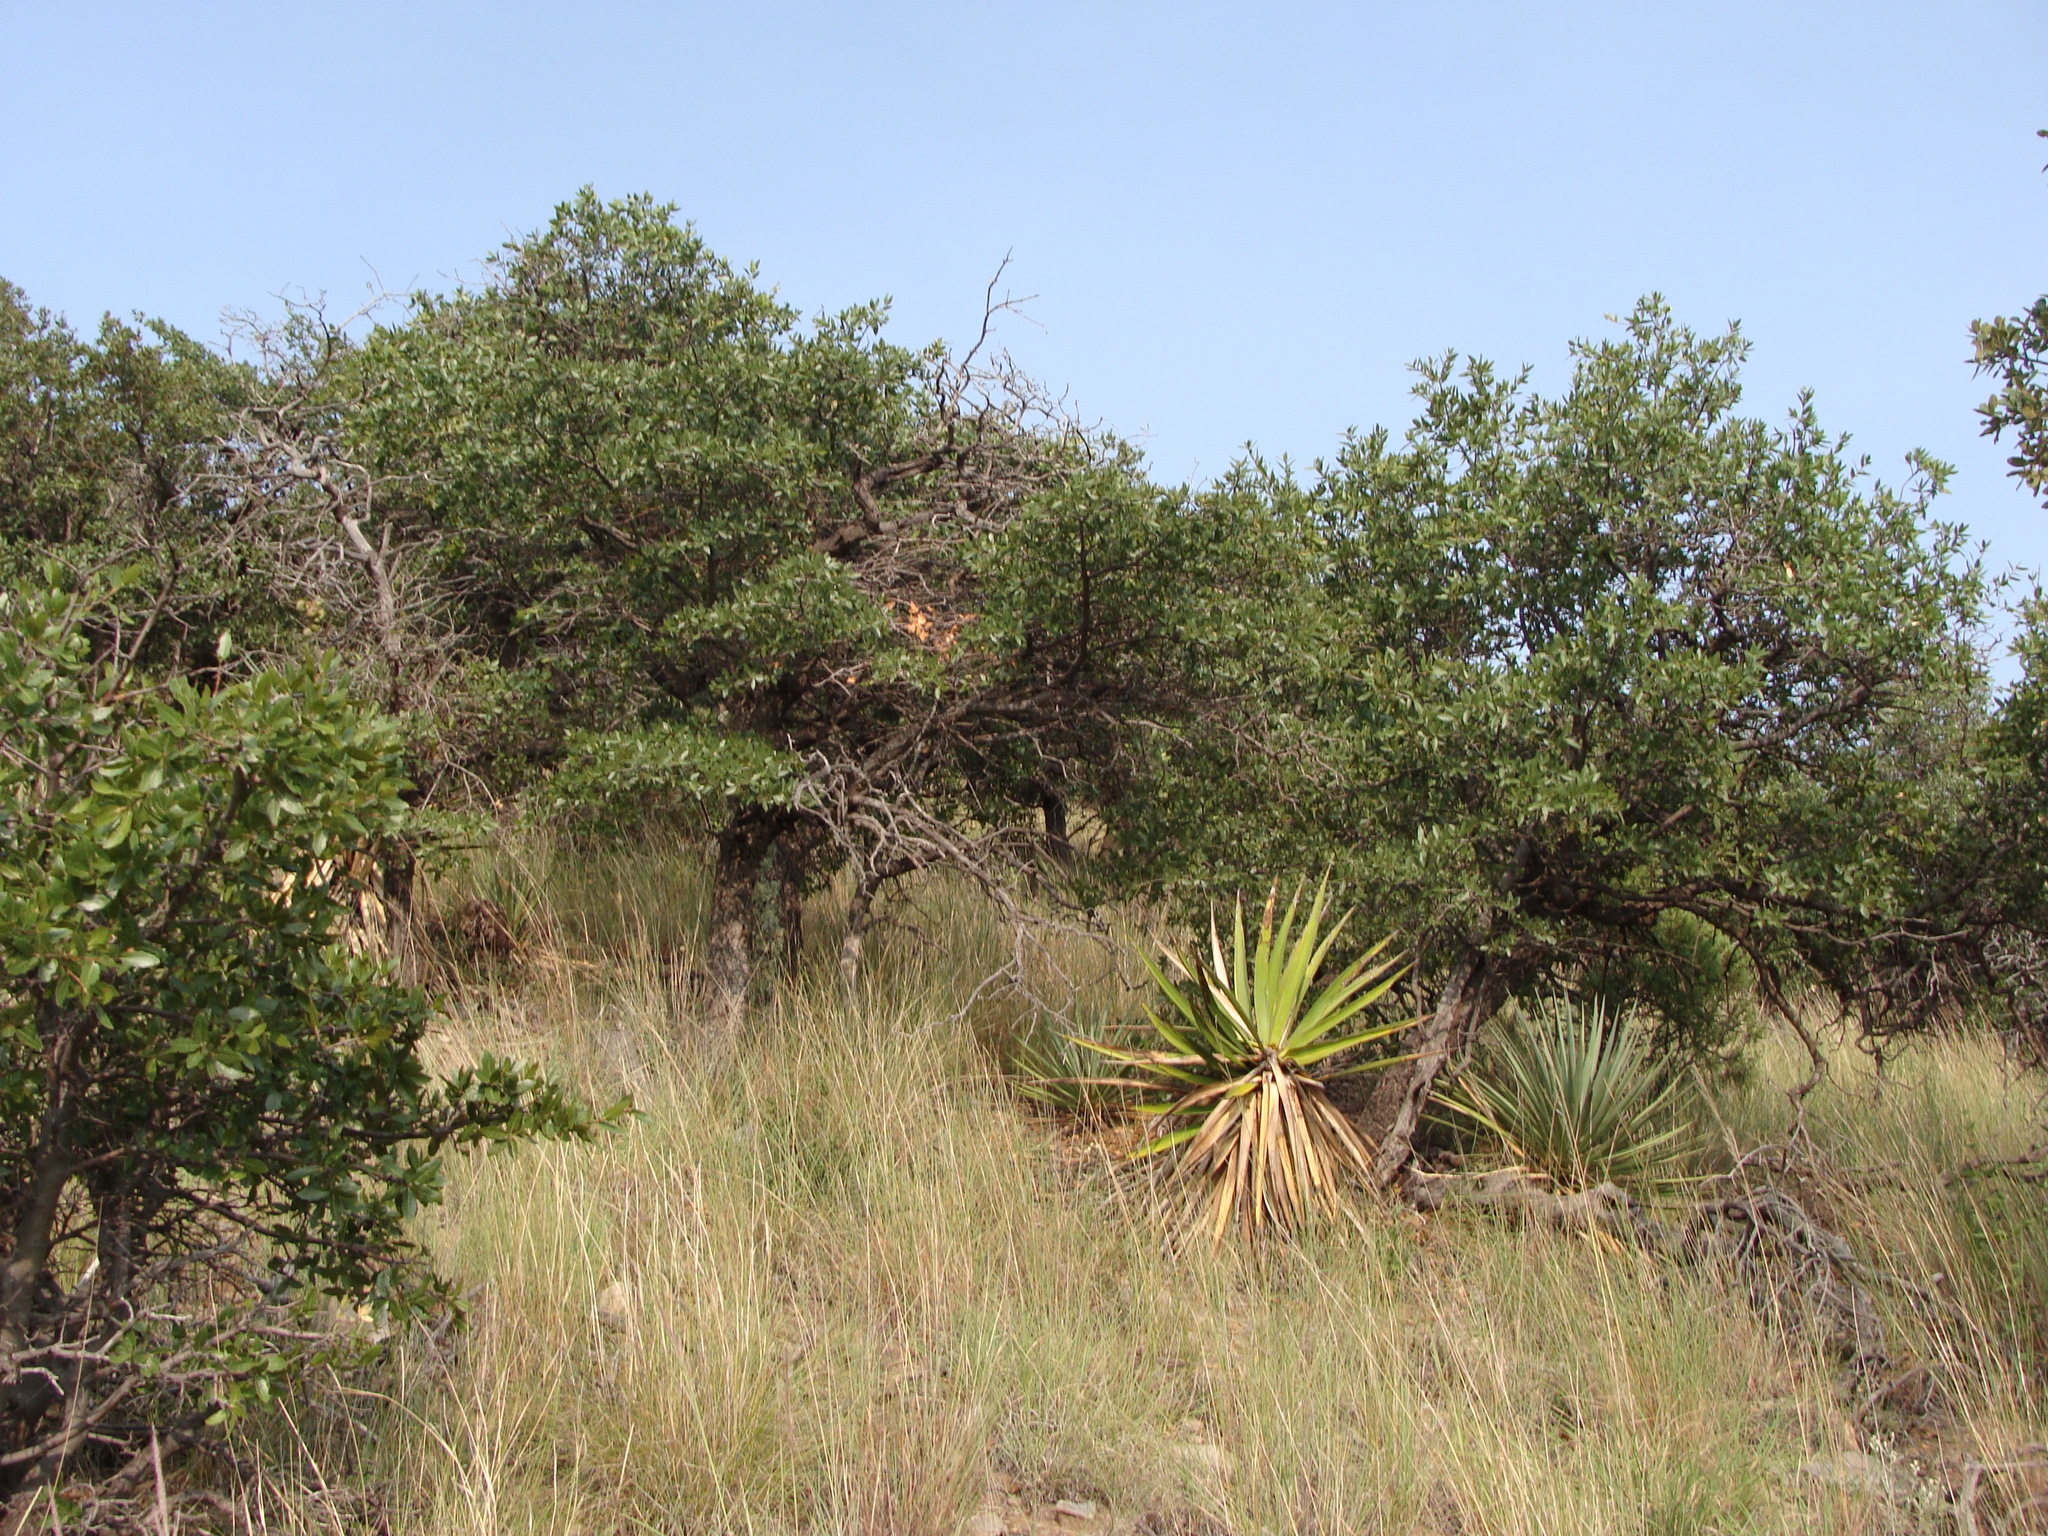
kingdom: Plantae
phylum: Tracheophyta
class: Liliopsida
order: Asparagales
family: Asparagaceae
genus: Yucca
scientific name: Yucca schottii
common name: Hoary yucca
